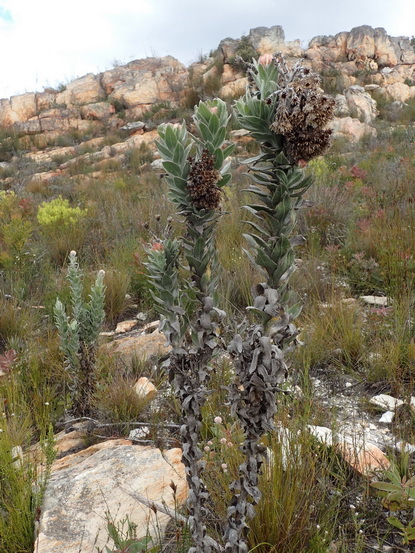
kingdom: Plantae
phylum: Tracheophyta
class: Magnoliopsida
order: Asterales
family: Asteraceae
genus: Syncarpha
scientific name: Syncarpha milleflora
